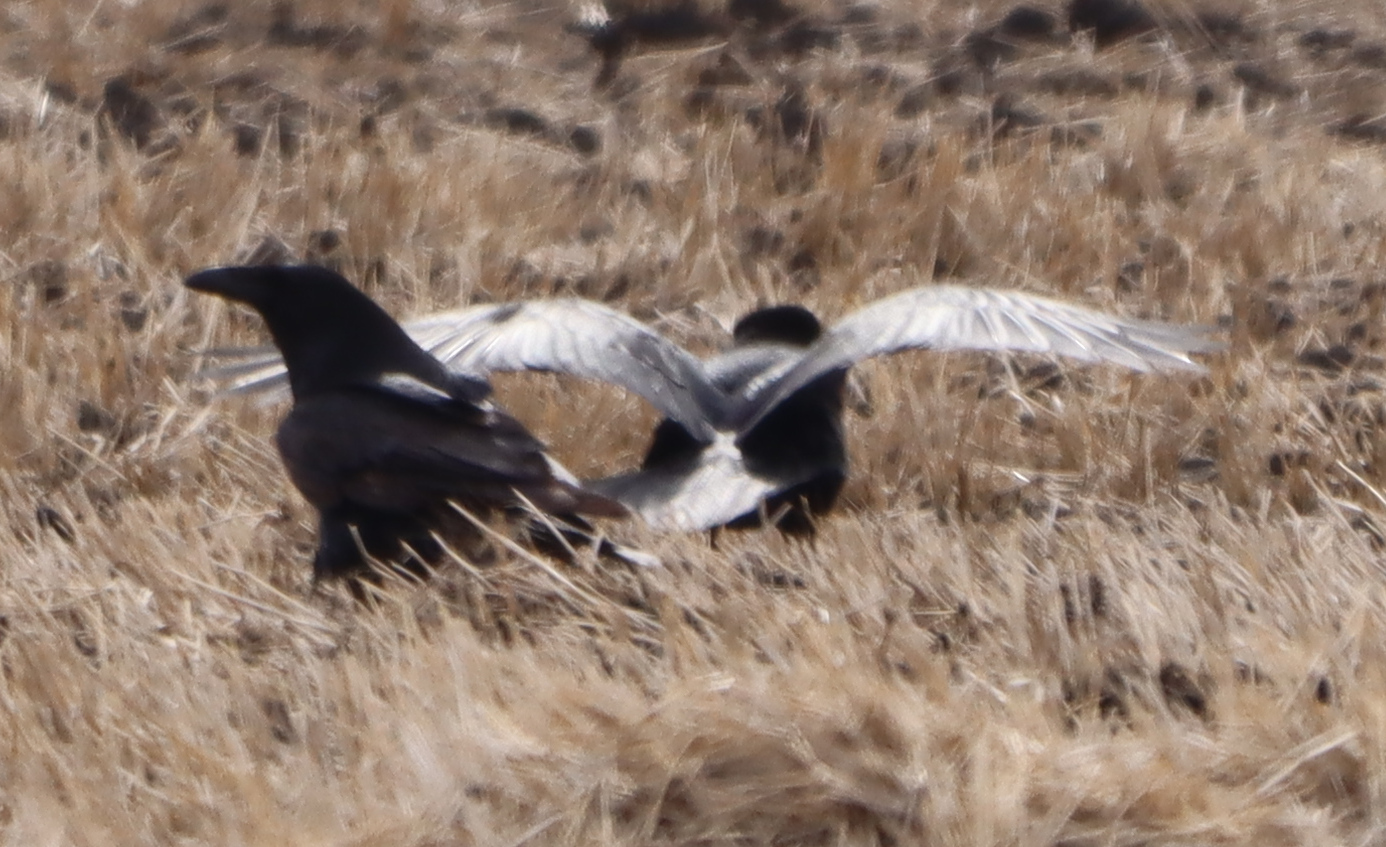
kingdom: Animalia
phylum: Chordata
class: Aves
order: Passeriformes
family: Corvidae
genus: Corvus
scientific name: Corvus corax
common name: Common raven
